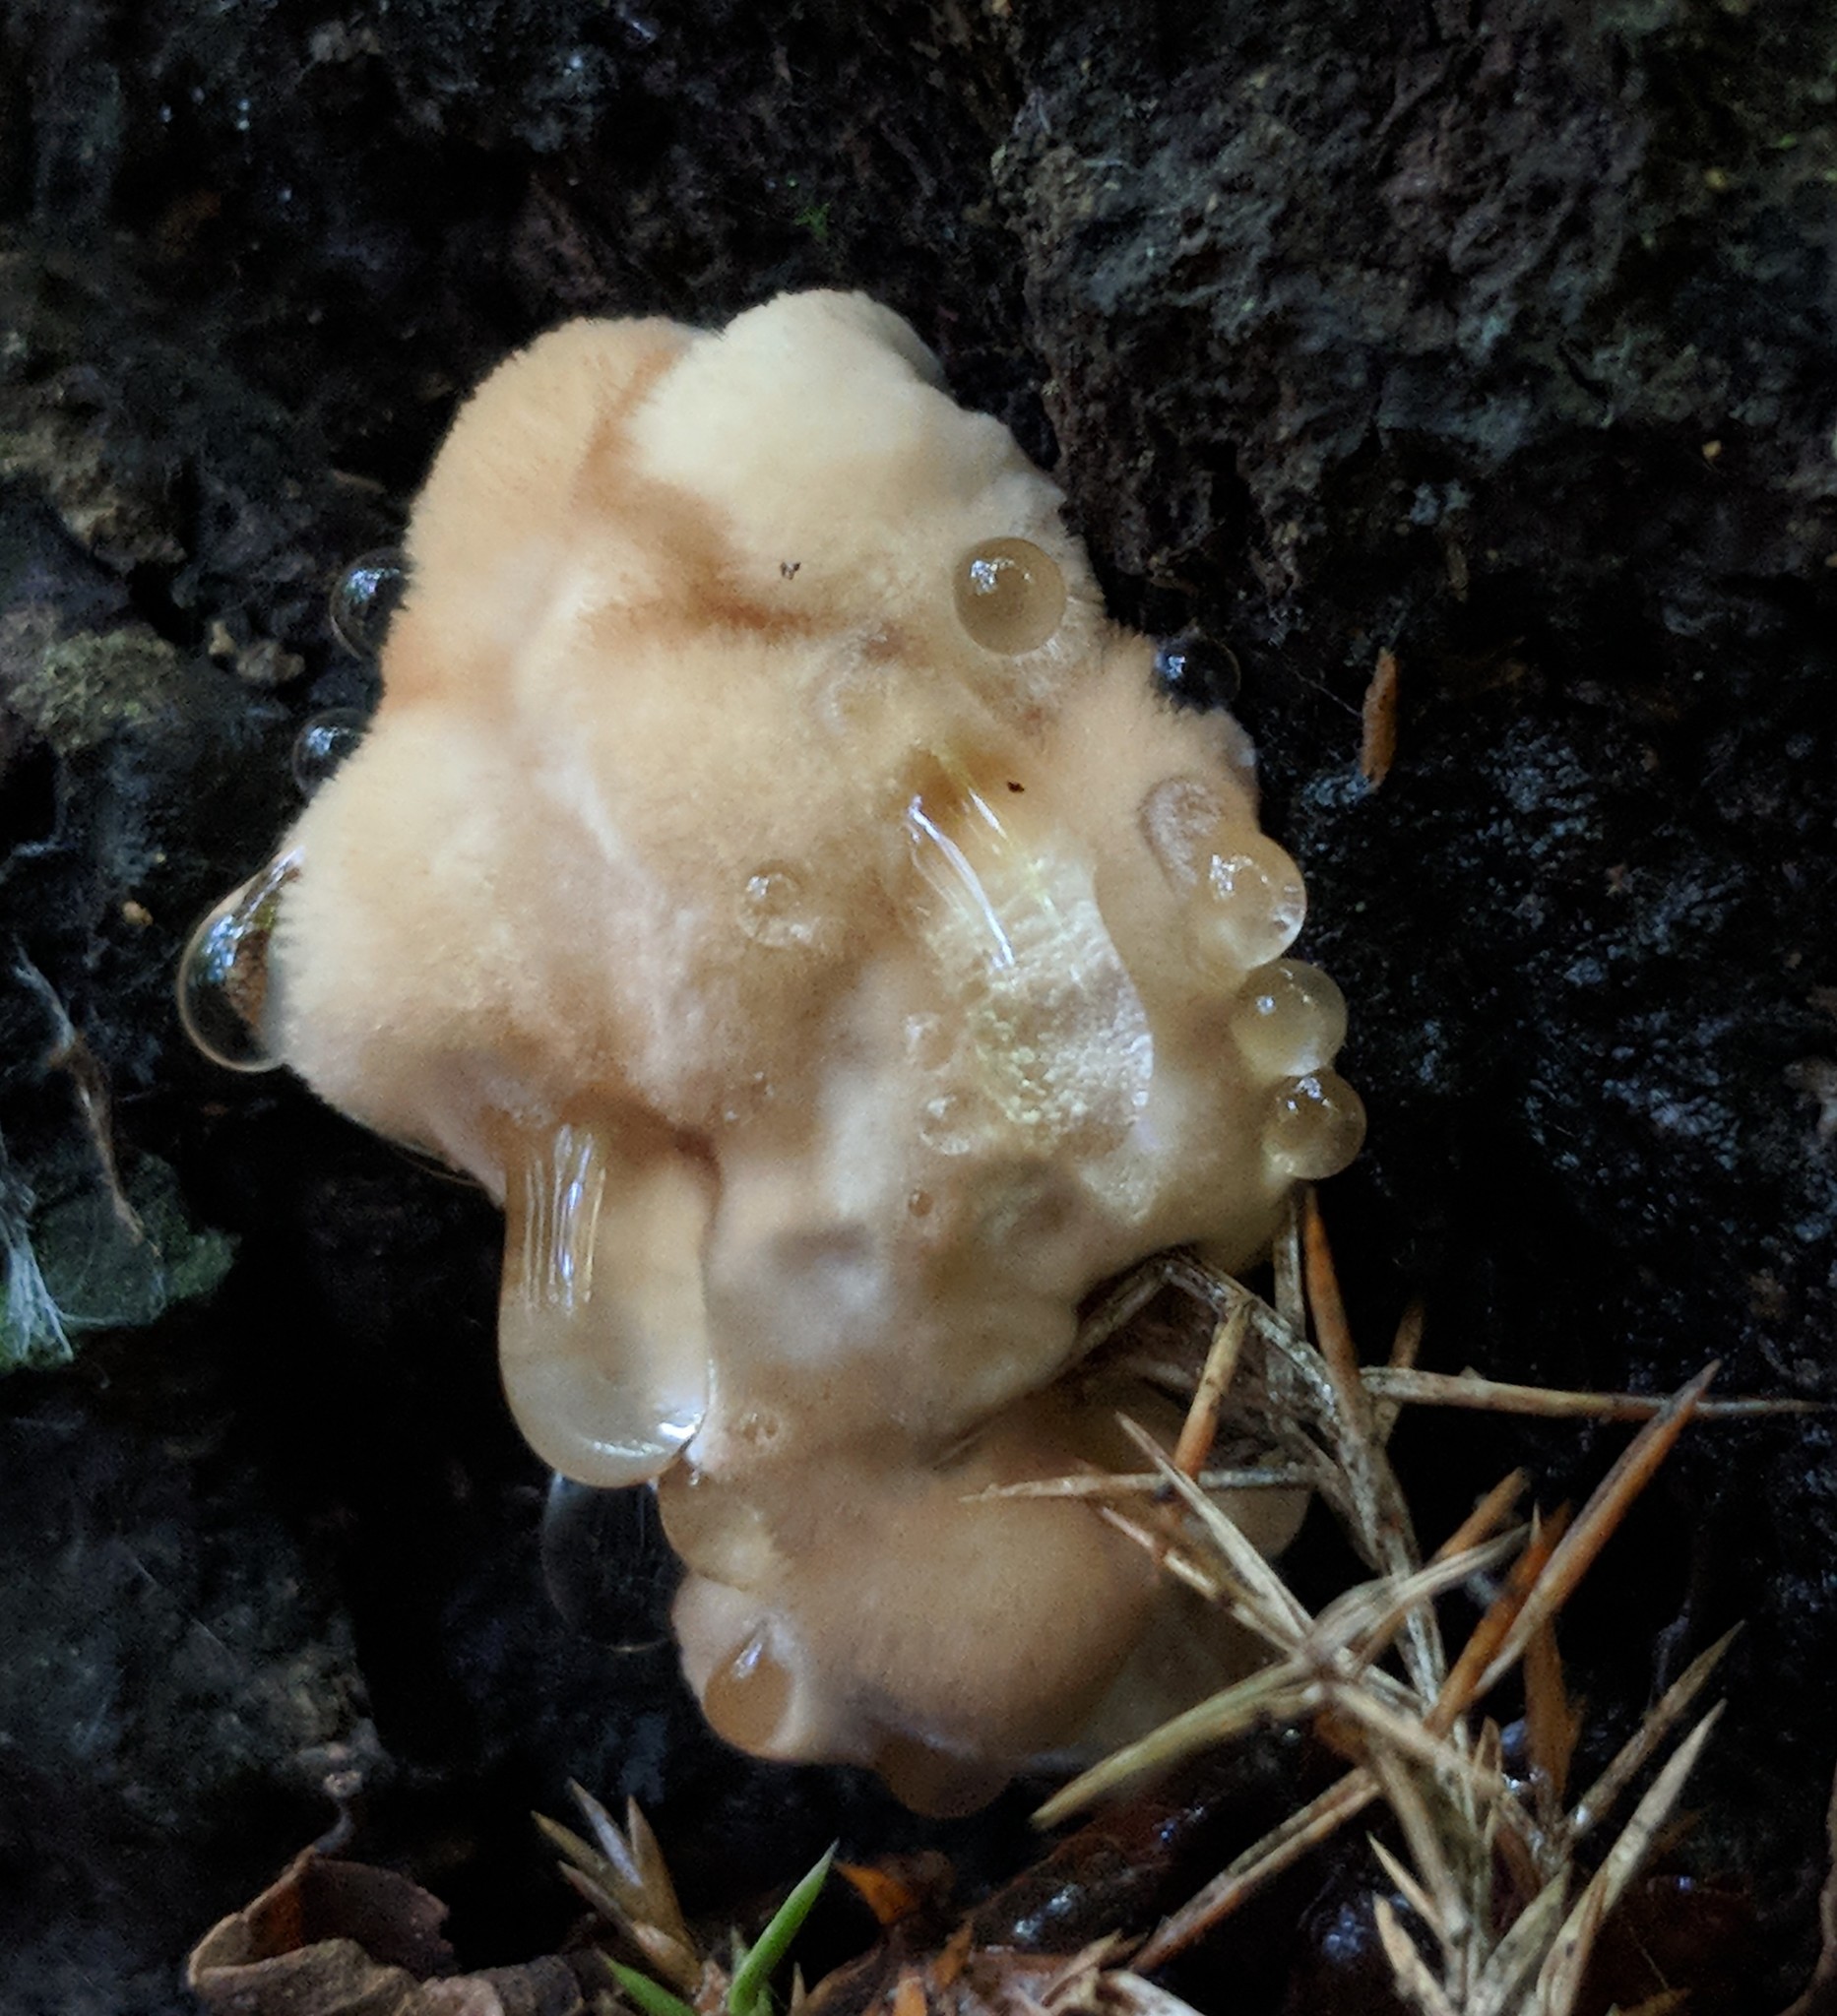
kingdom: Fungi
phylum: Basidiomycota
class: Agaricomycetes
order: Polyporales
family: Fomitopsidaceae
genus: Niveoporofomes
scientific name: Niveoporofomes spraguei
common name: Green cheese polypore
